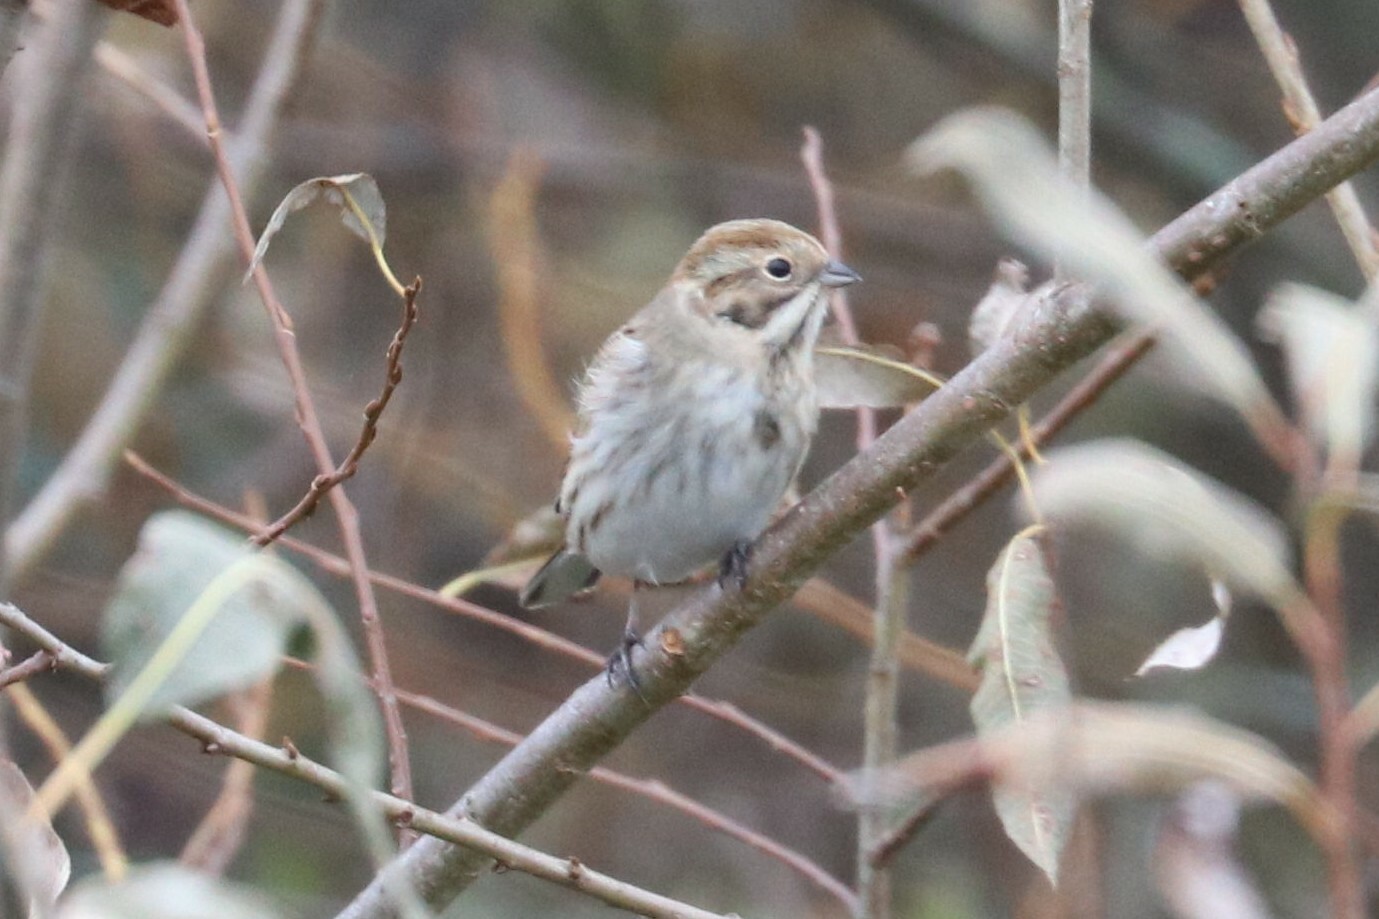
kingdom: Animalia
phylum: Chordata
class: Aves
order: Passeriformes
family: Emberizidae
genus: Emberiza
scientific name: Emberiza schoeniclus
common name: Reed bunting
